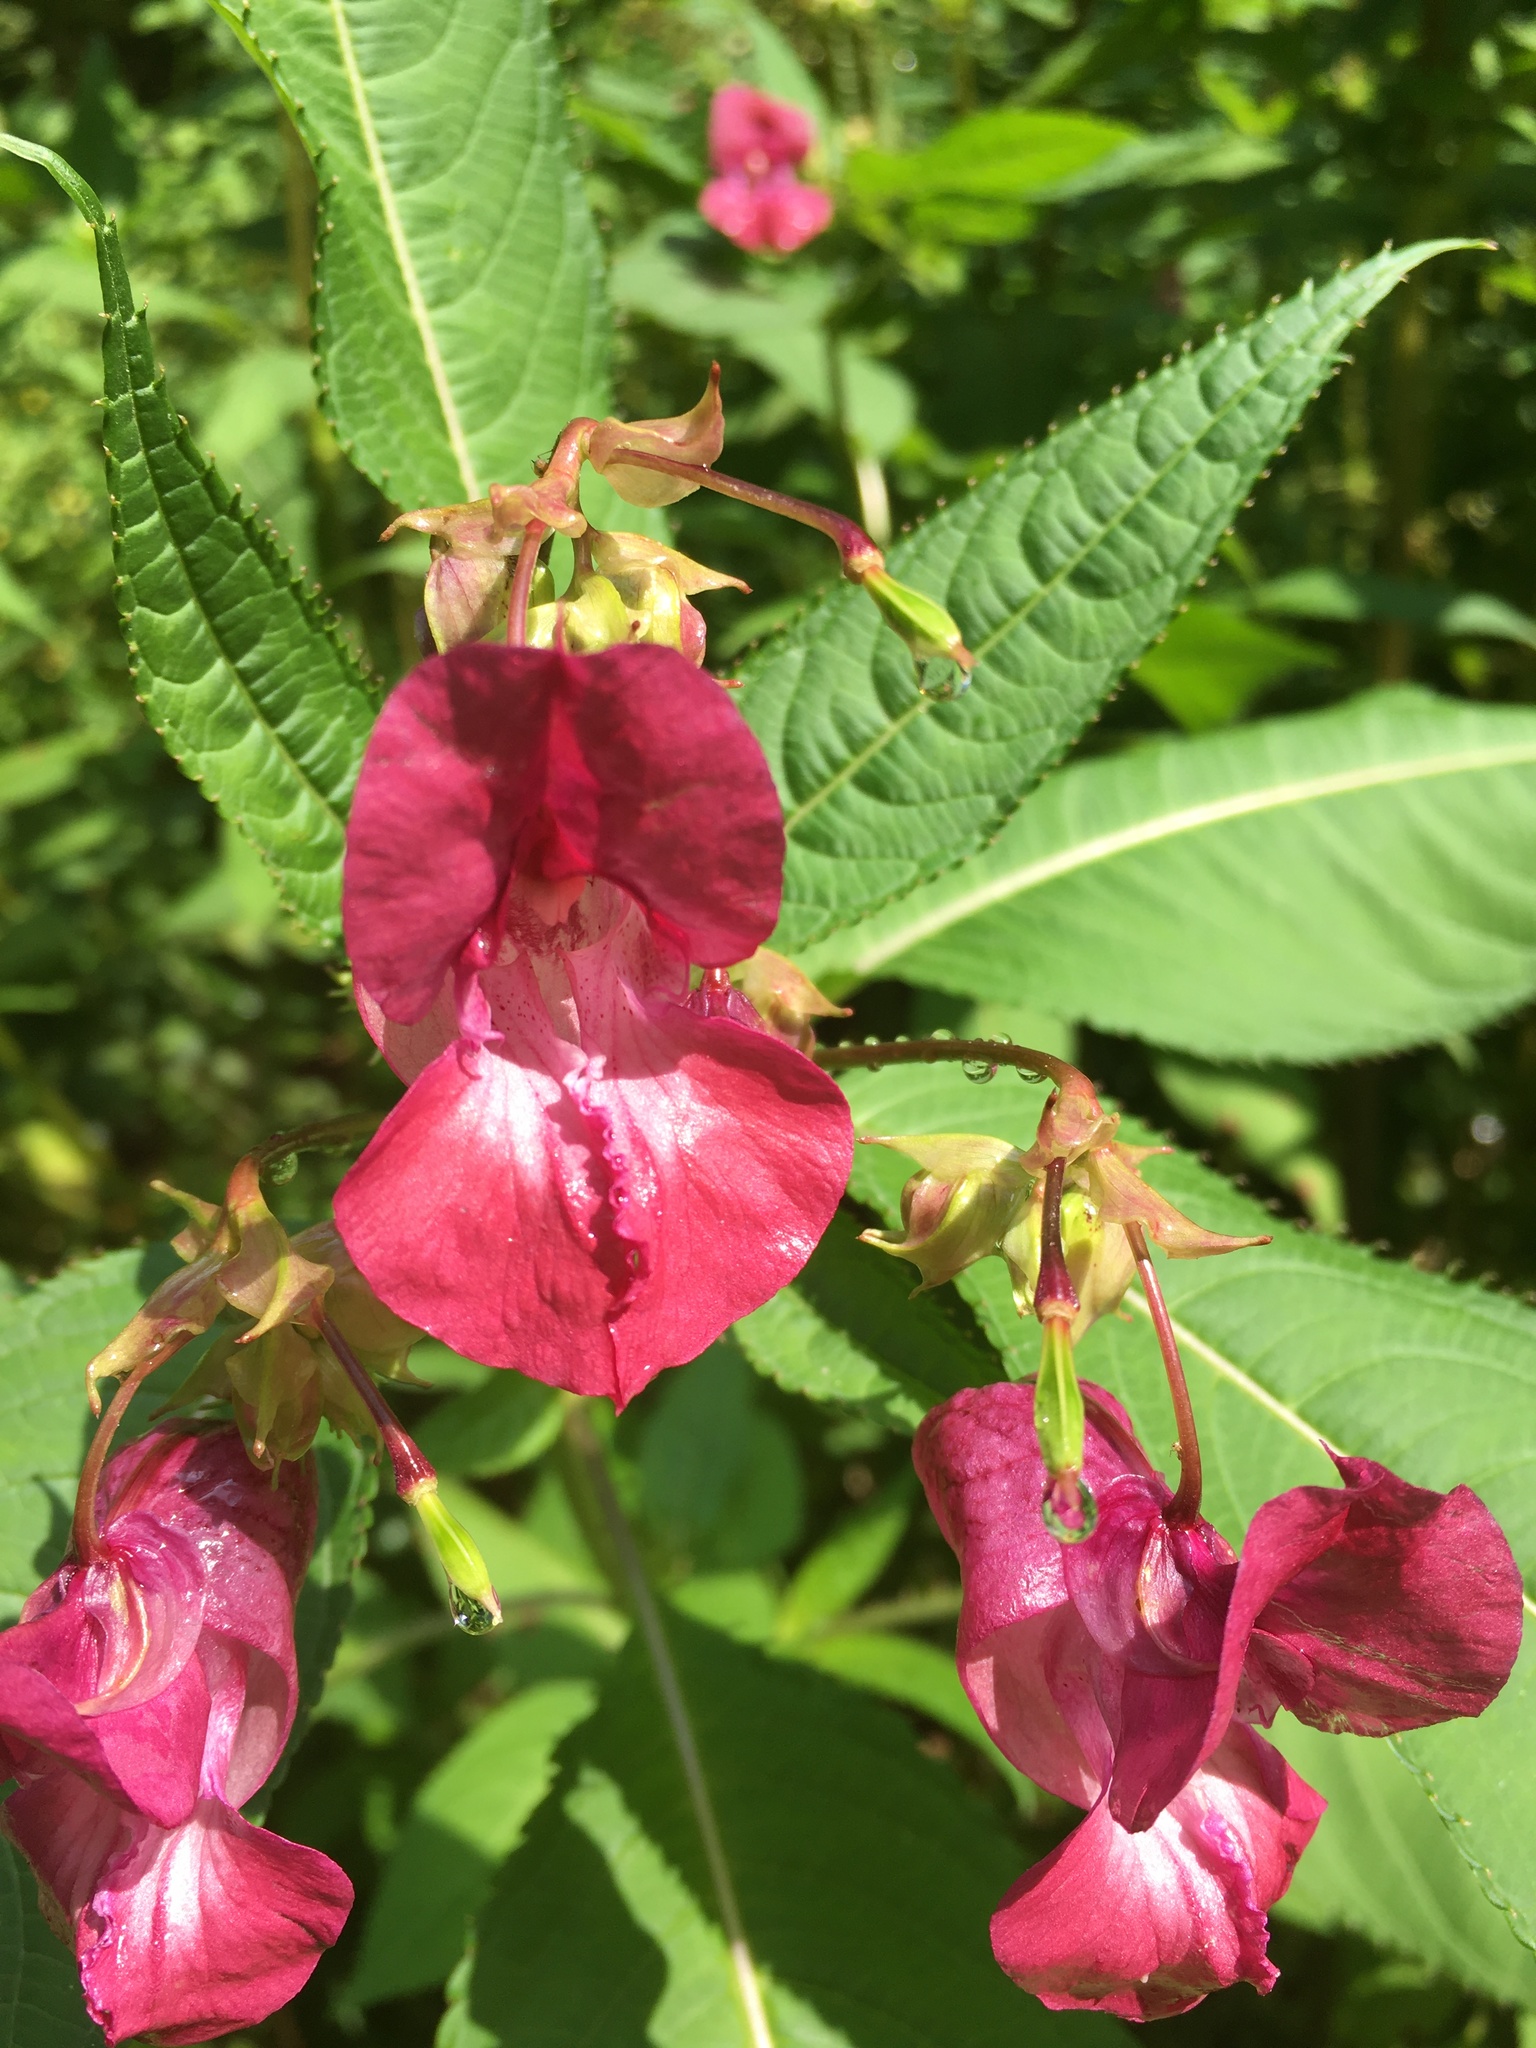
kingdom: Plantae
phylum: Tracheophyta
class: Magnoliopsida
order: Ericales
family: Balsaminaceae
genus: Impatiens
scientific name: Impatiens glandulifera
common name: Himalayan balsam
